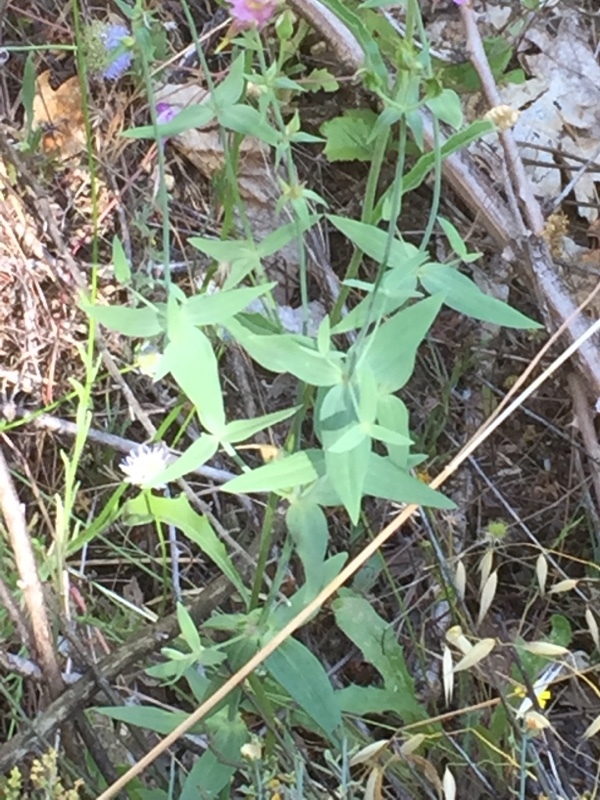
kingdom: Plantae
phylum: Tracheophyta
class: Magnoliopsida
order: Lamiales
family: Plantaginaceae
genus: Linaria
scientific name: Linaria triornithophora
